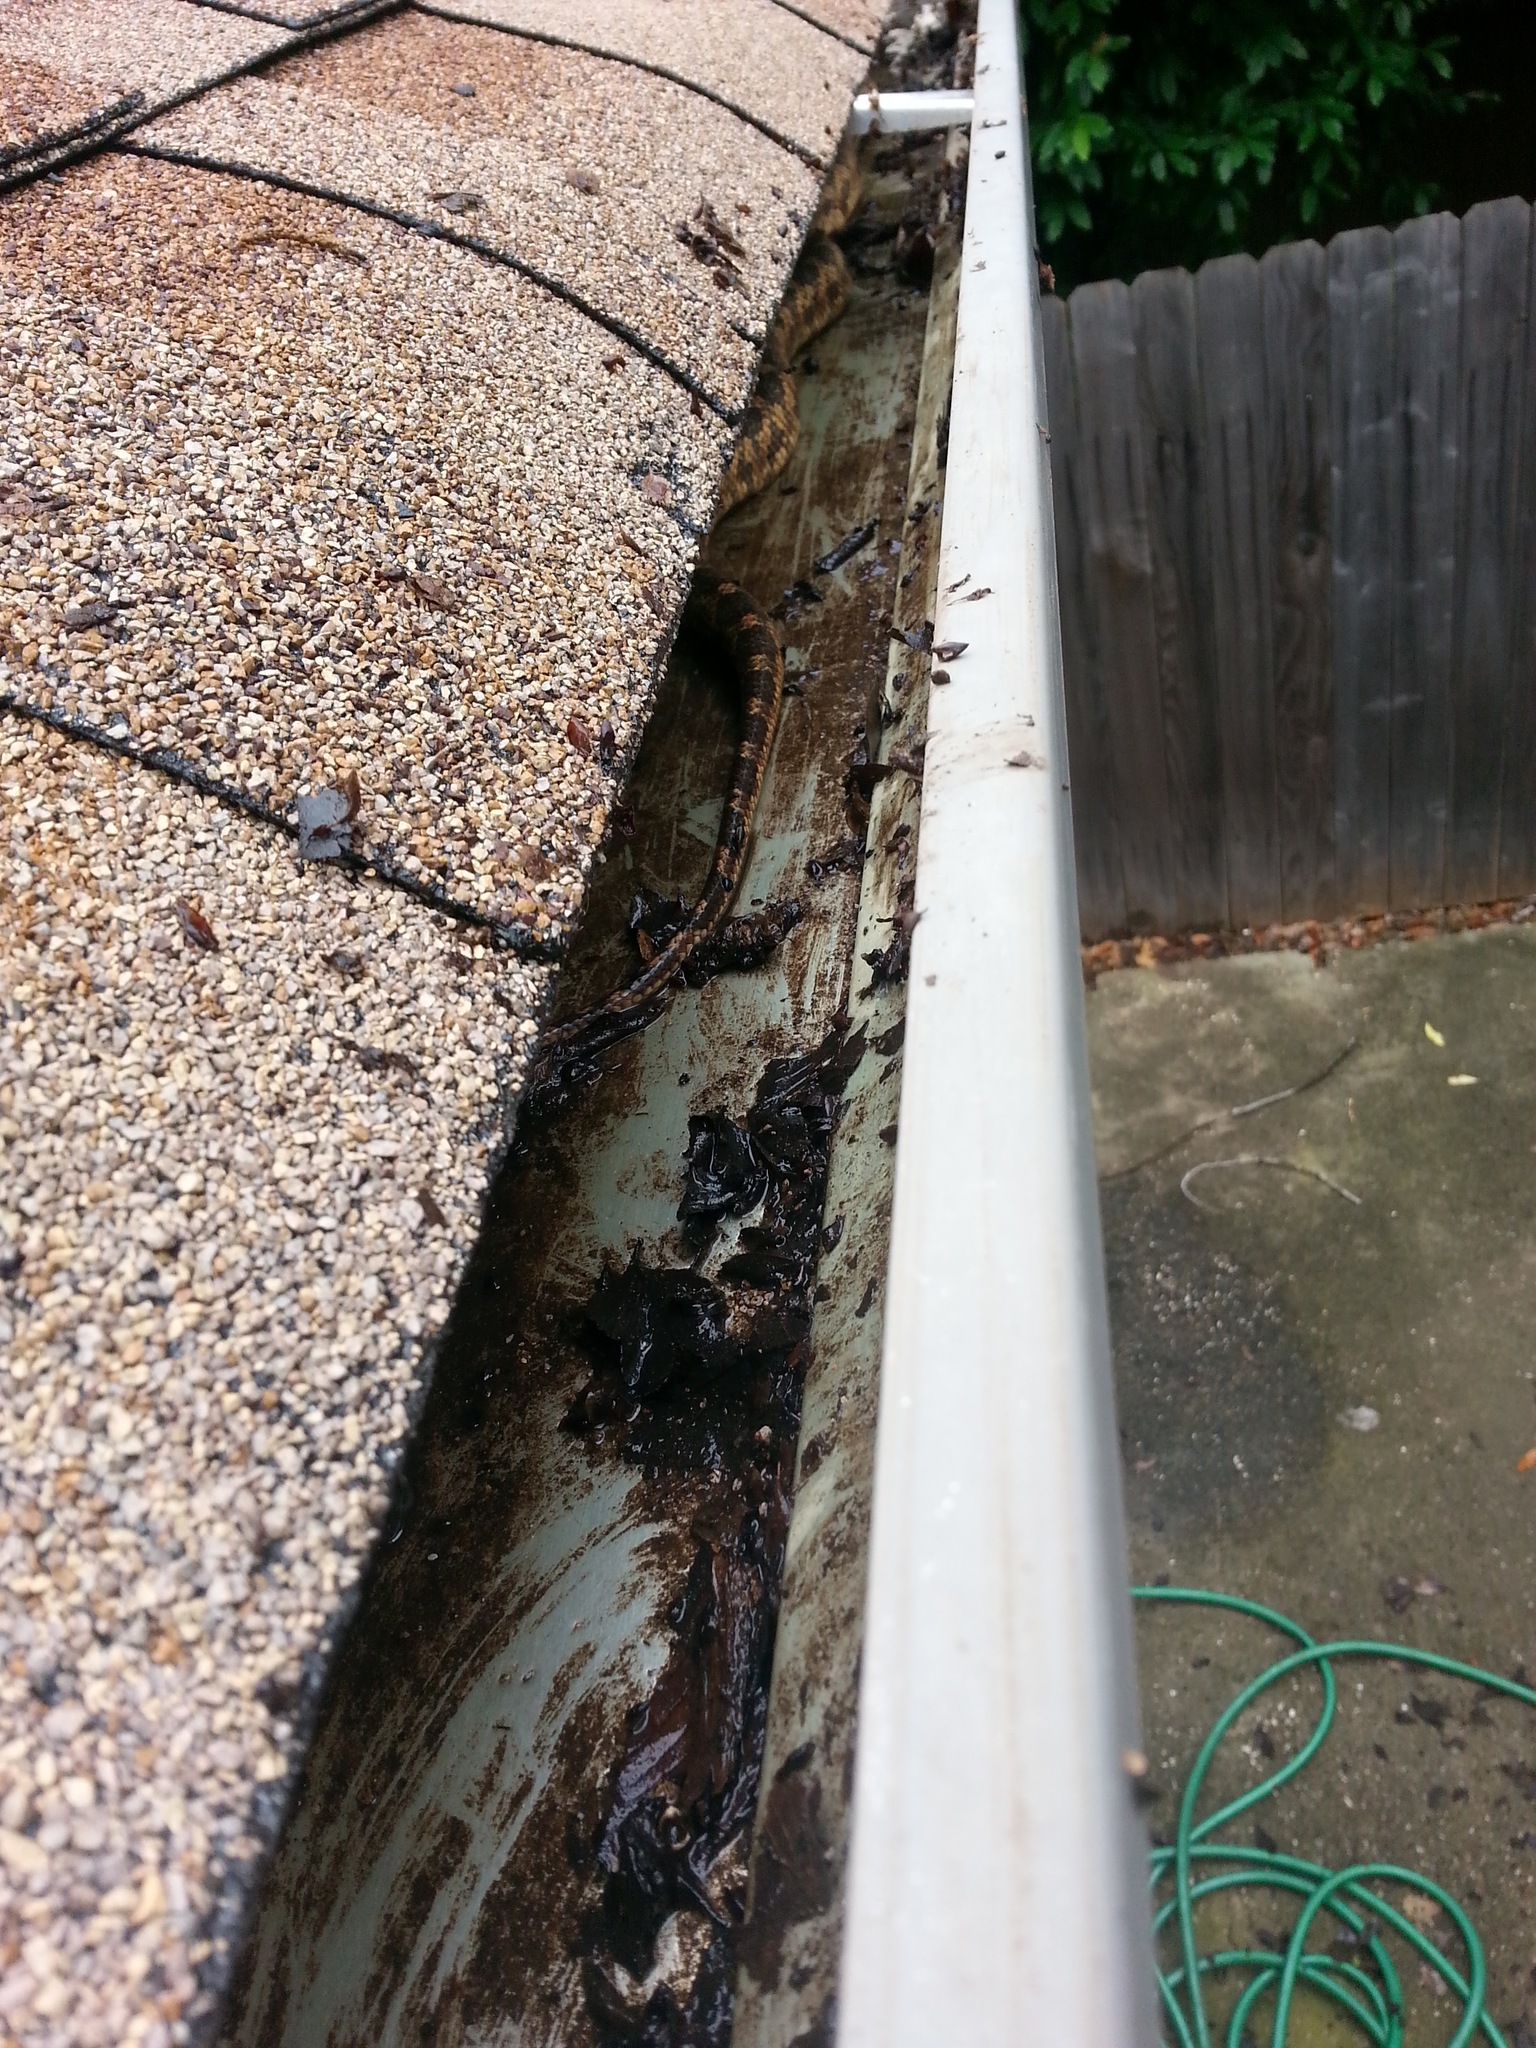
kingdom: Animalia
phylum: Chordata
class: Squamata
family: Colubridae
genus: Pantherophis
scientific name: Pantherophis obsoletus
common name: Black rat snake
